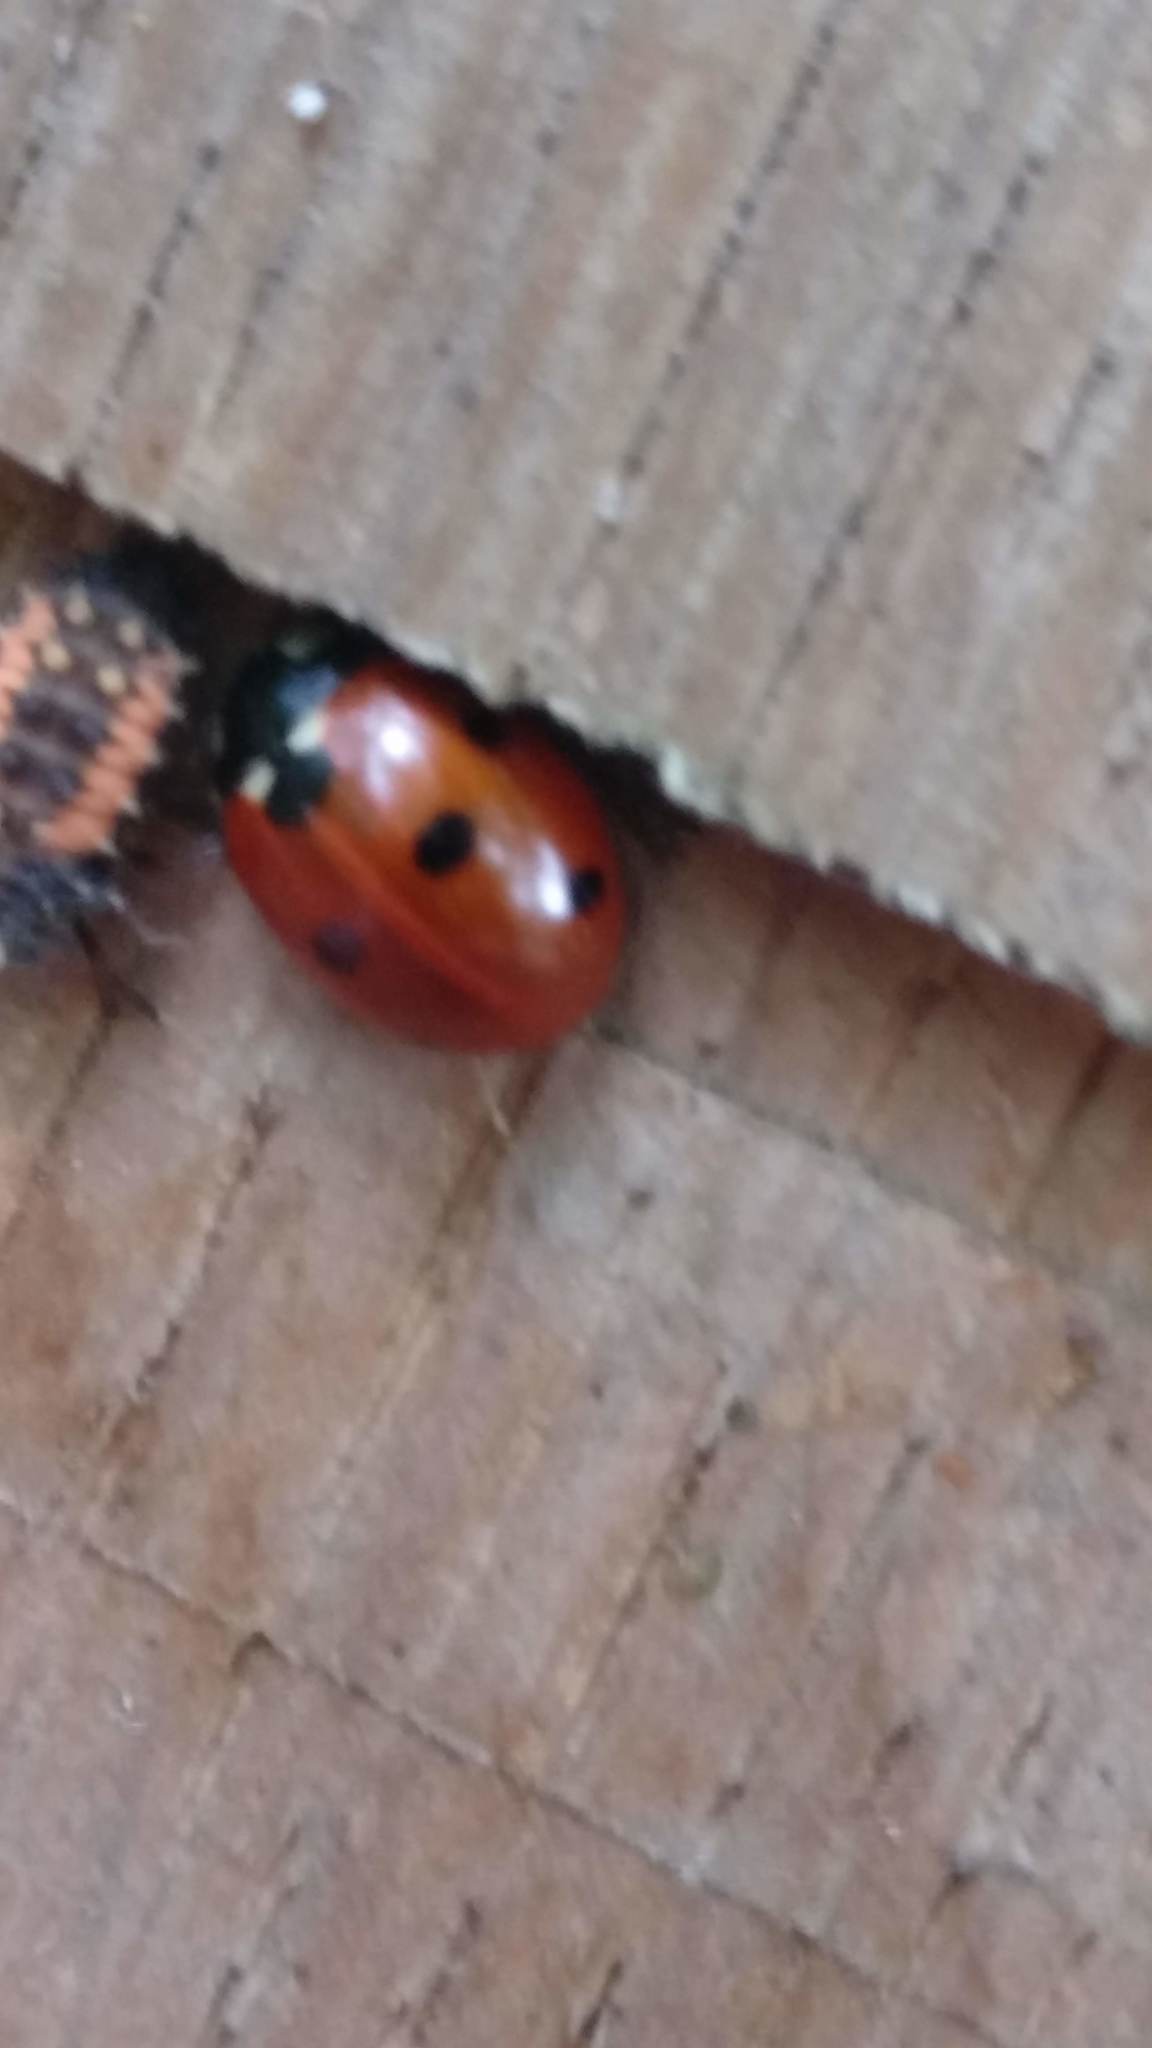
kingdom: Animalia
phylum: Arthropoda
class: Insecta
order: Coleoptera
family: Coccinellidae
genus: Coccinella
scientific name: Coccinella septempunctata
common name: Sevenspotted lady beetle
